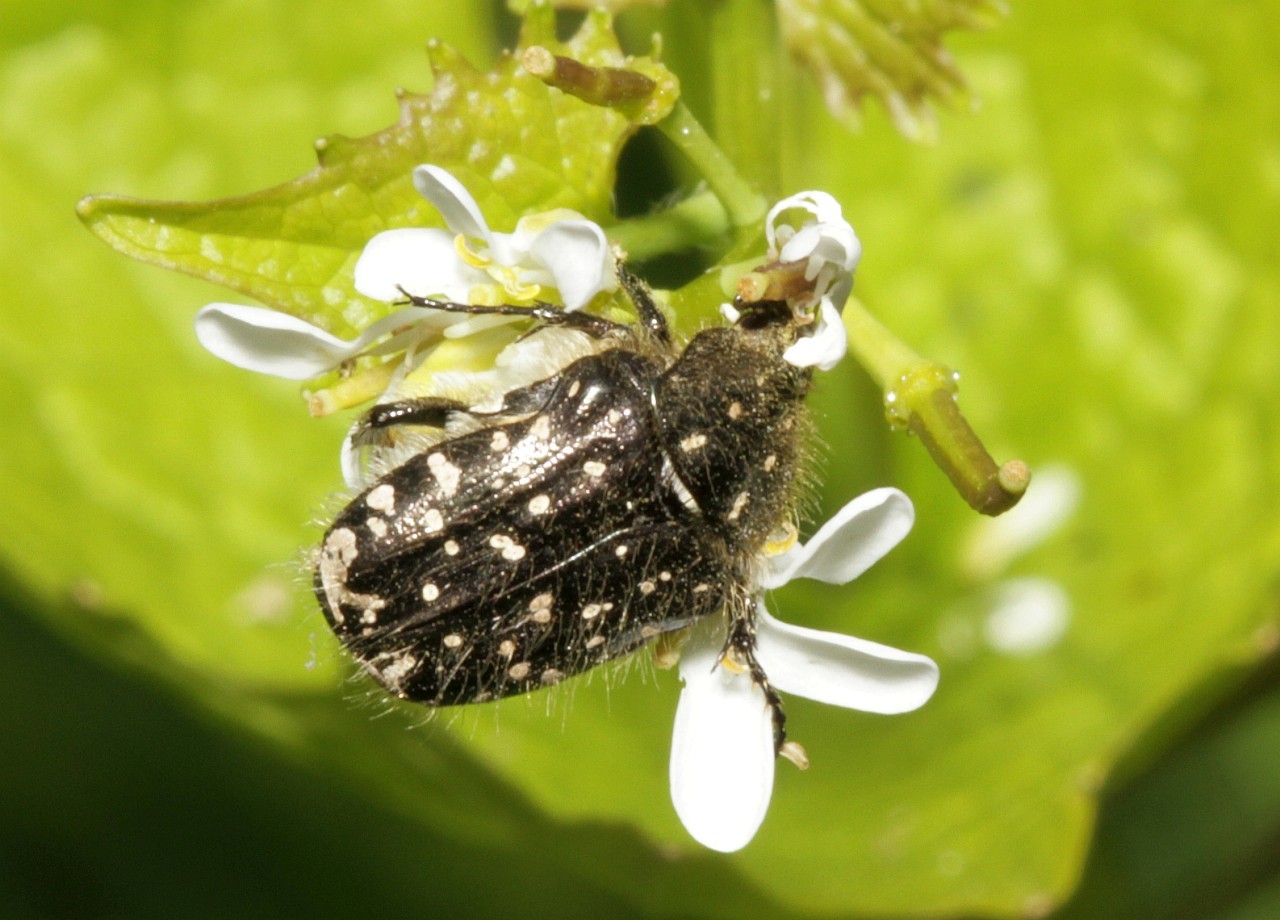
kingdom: Animalia
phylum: Arthropoda
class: Insecta
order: Coleoptera
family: Scarabaeidae
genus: Oxythyrea
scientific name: Oxythyrea funesta
